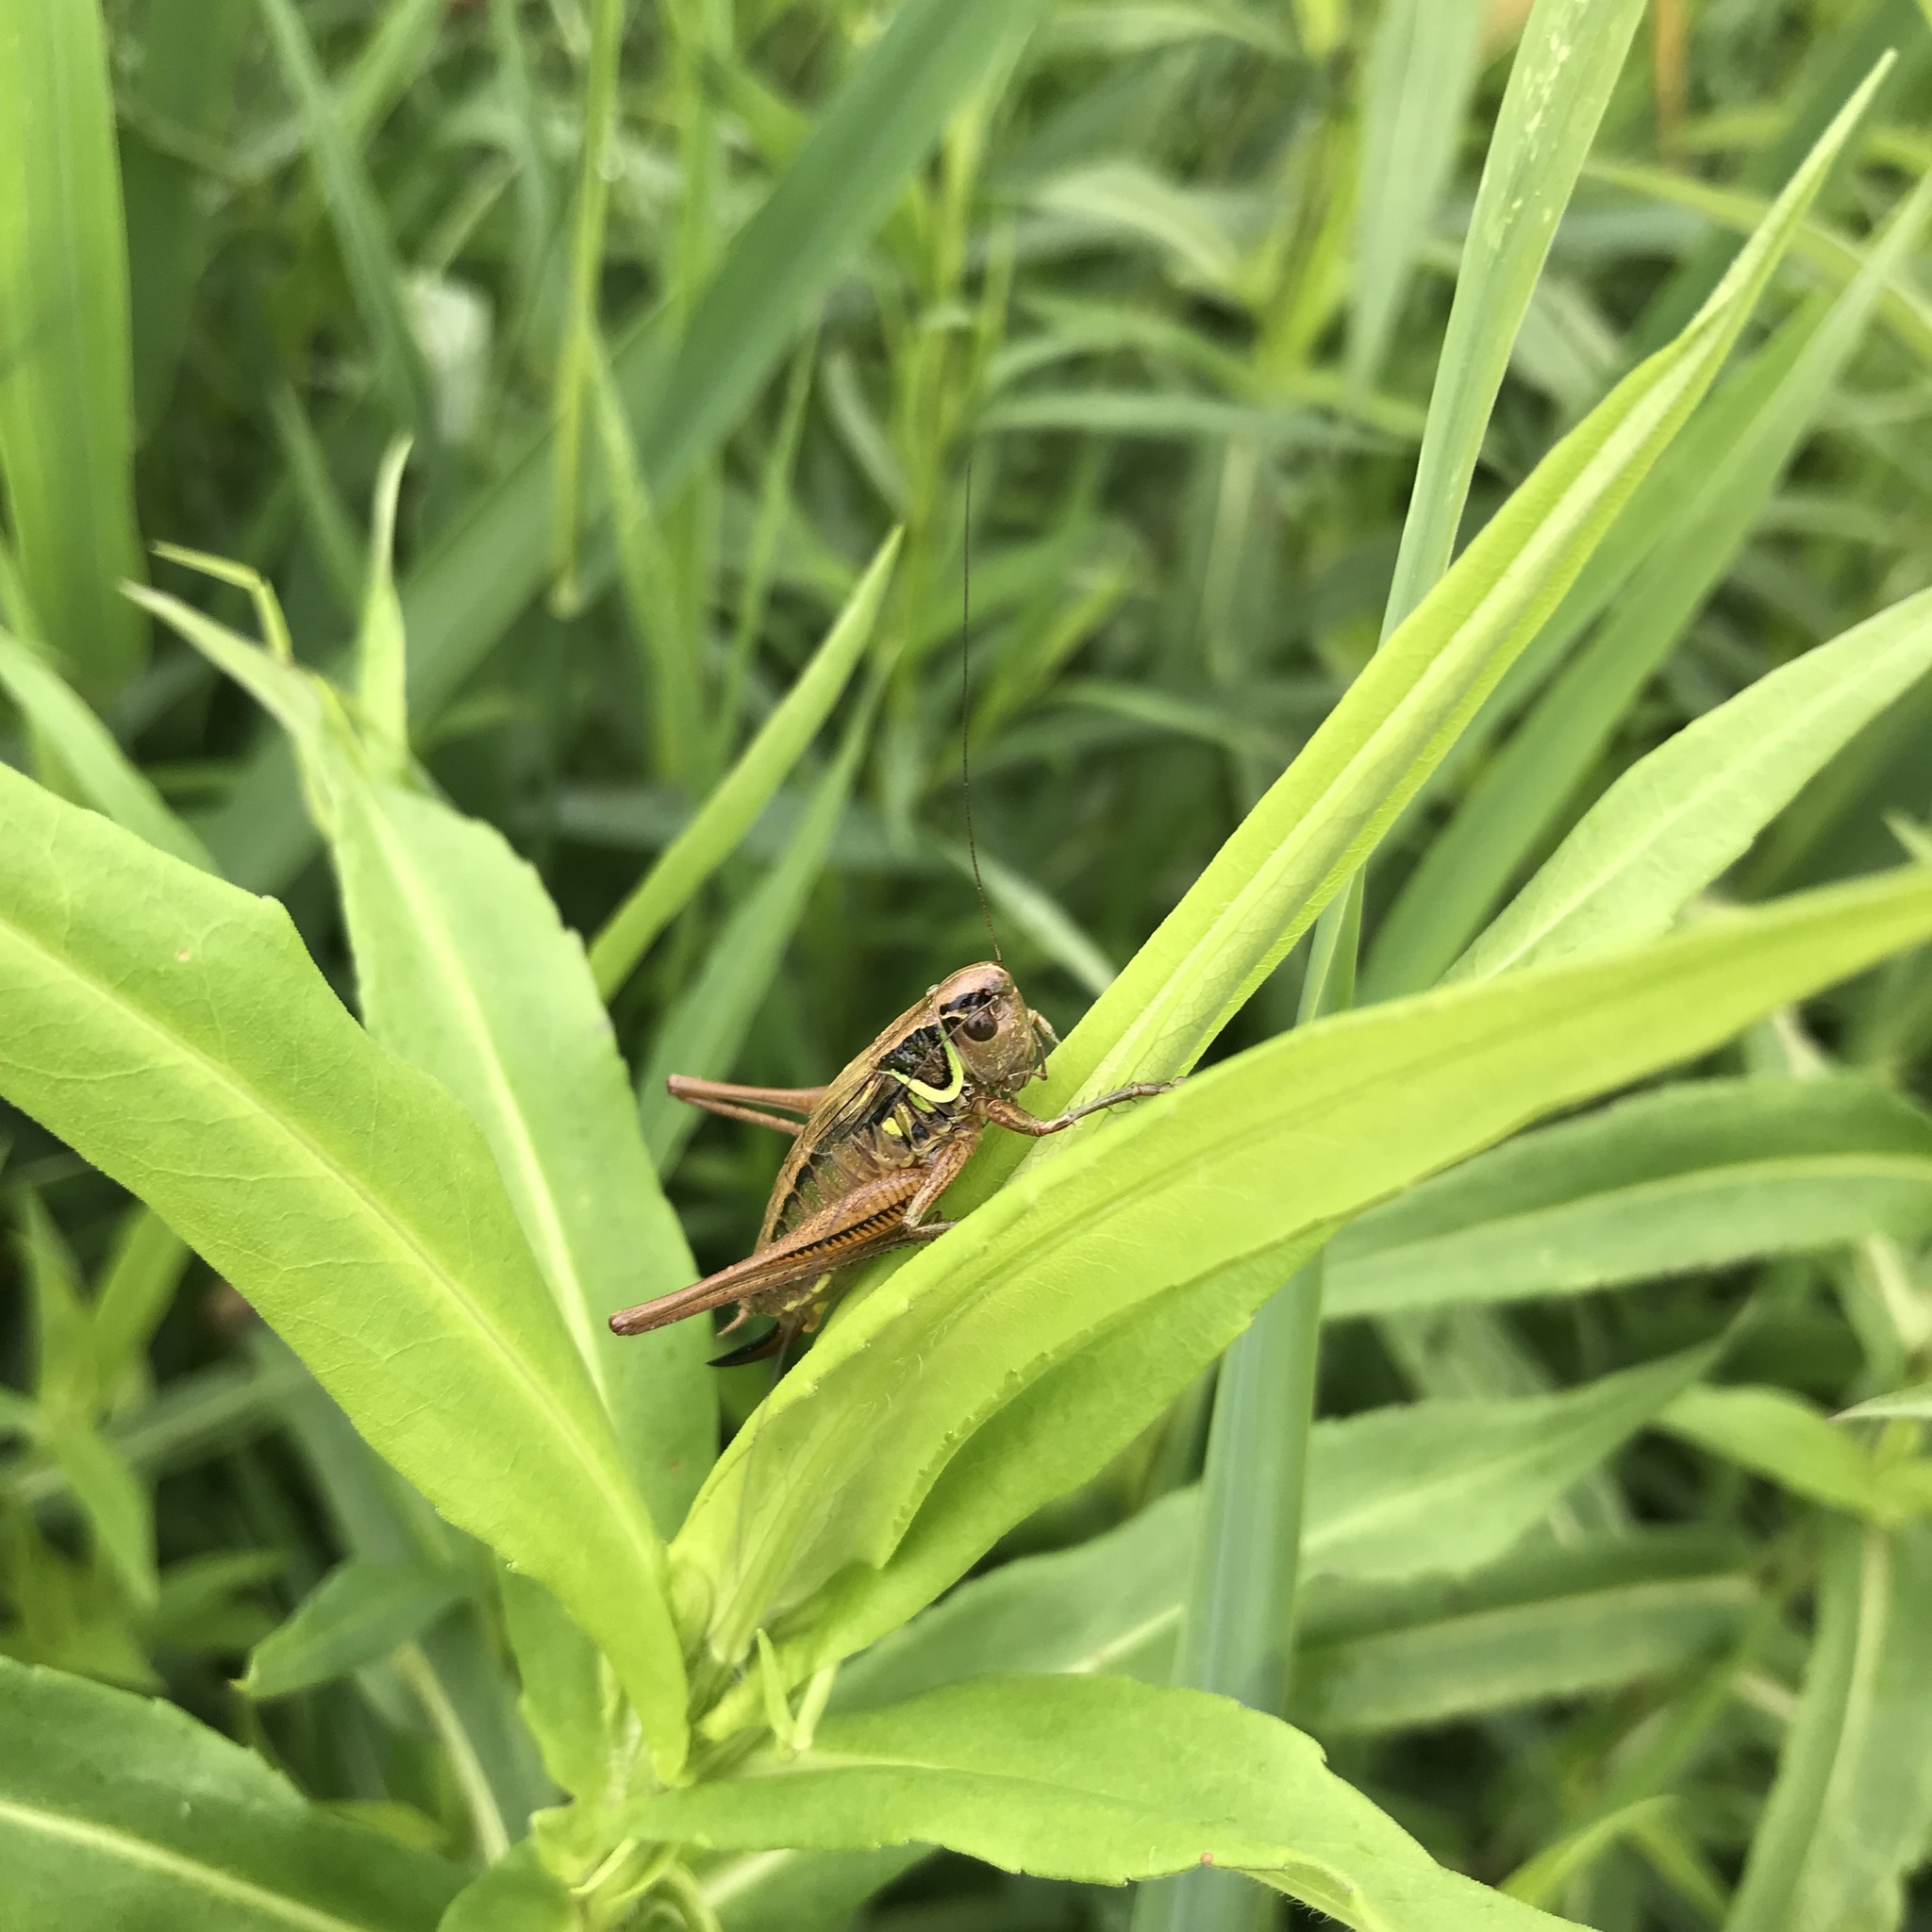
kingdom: Animalia
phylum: Arthropoda
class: Insecta
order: Orthoptera
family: Tettigoniidae
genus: Roeseliana
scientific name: Roeseliana roeselii
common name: Roesel's bush cricket
